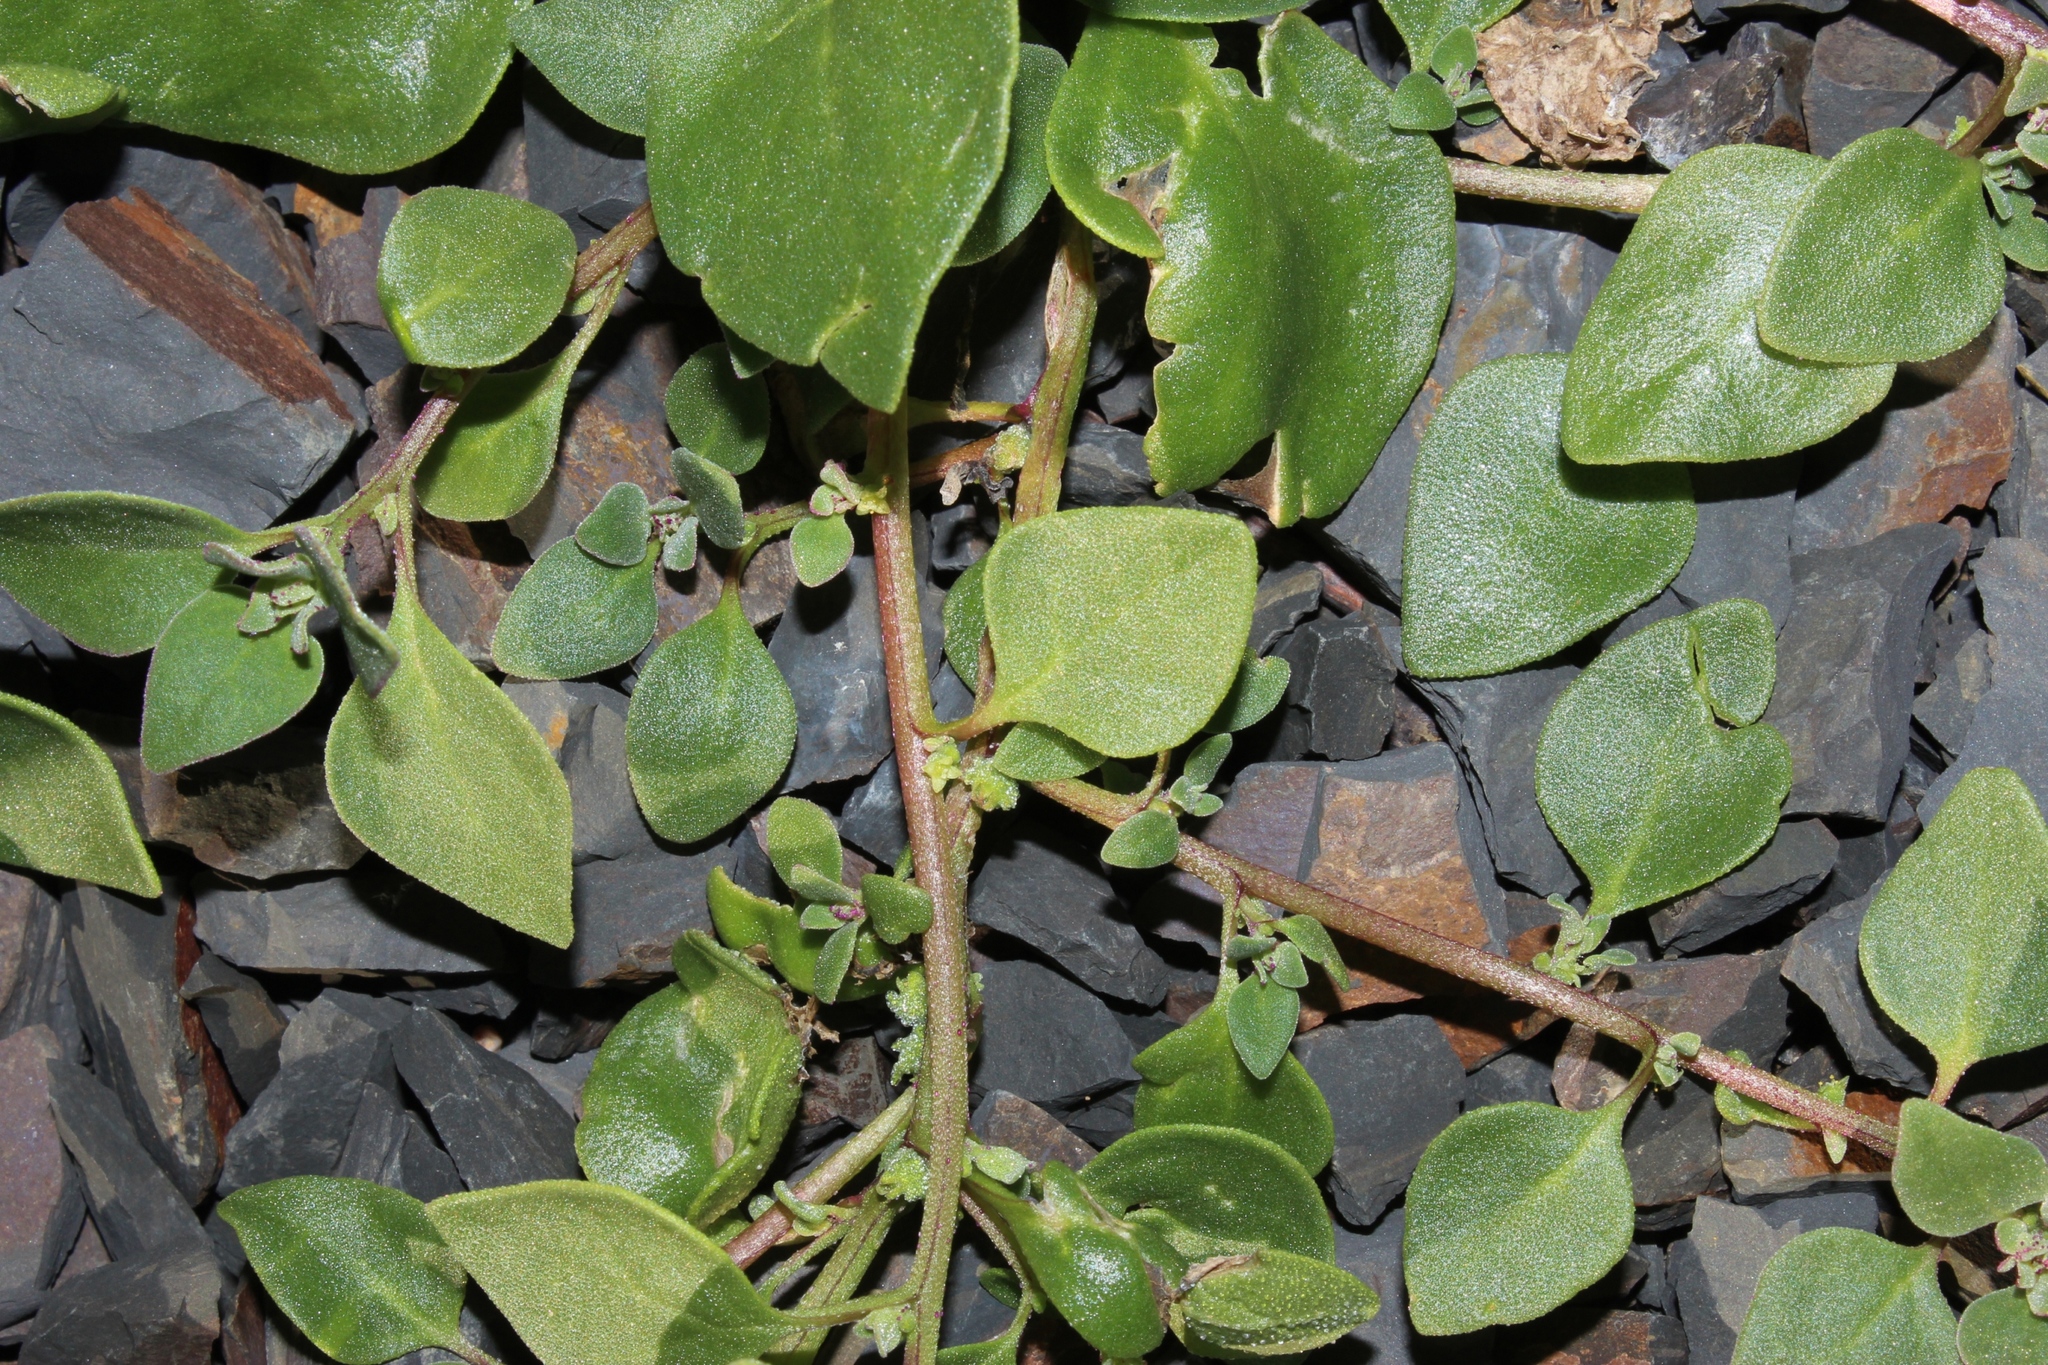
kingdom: Plantae
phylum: Tracheophyta
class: Magnoliopsida
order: Caryophyllales
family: Aizoaceae
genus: Tetragonia
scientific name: Tetragonia echinata
